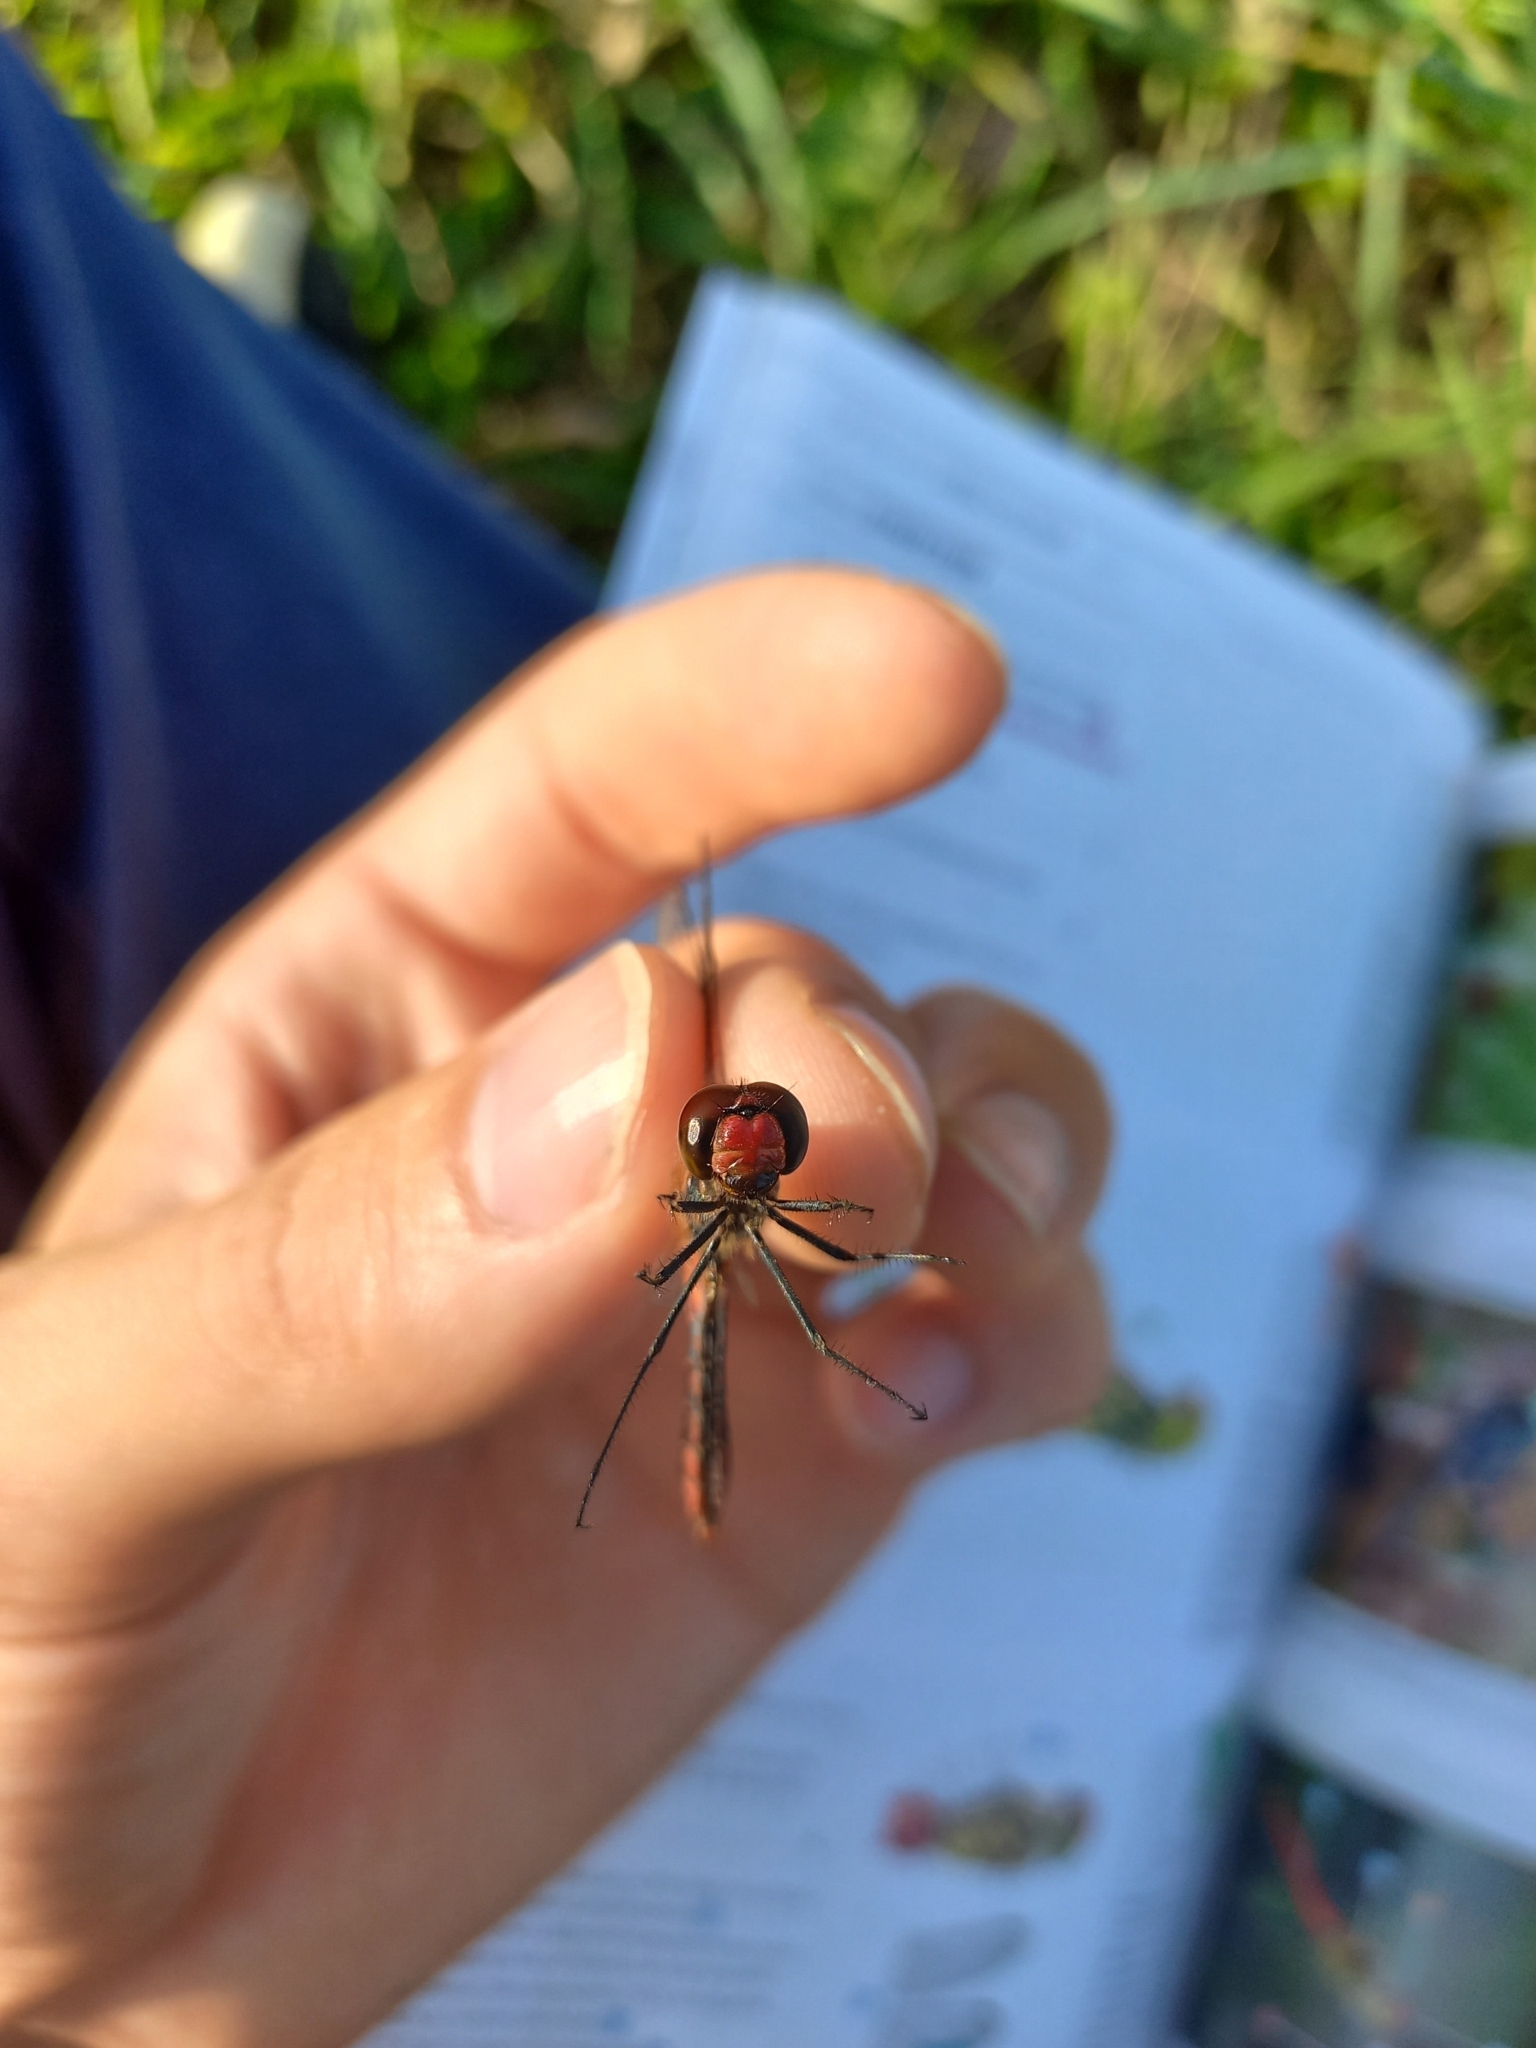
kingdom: Animalia
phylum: Arthropoda
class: Insecta
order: Odonata
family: Libellulidae
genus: Sympetrum
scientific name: Sympetrum sanguineum
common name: Ruddy darter
